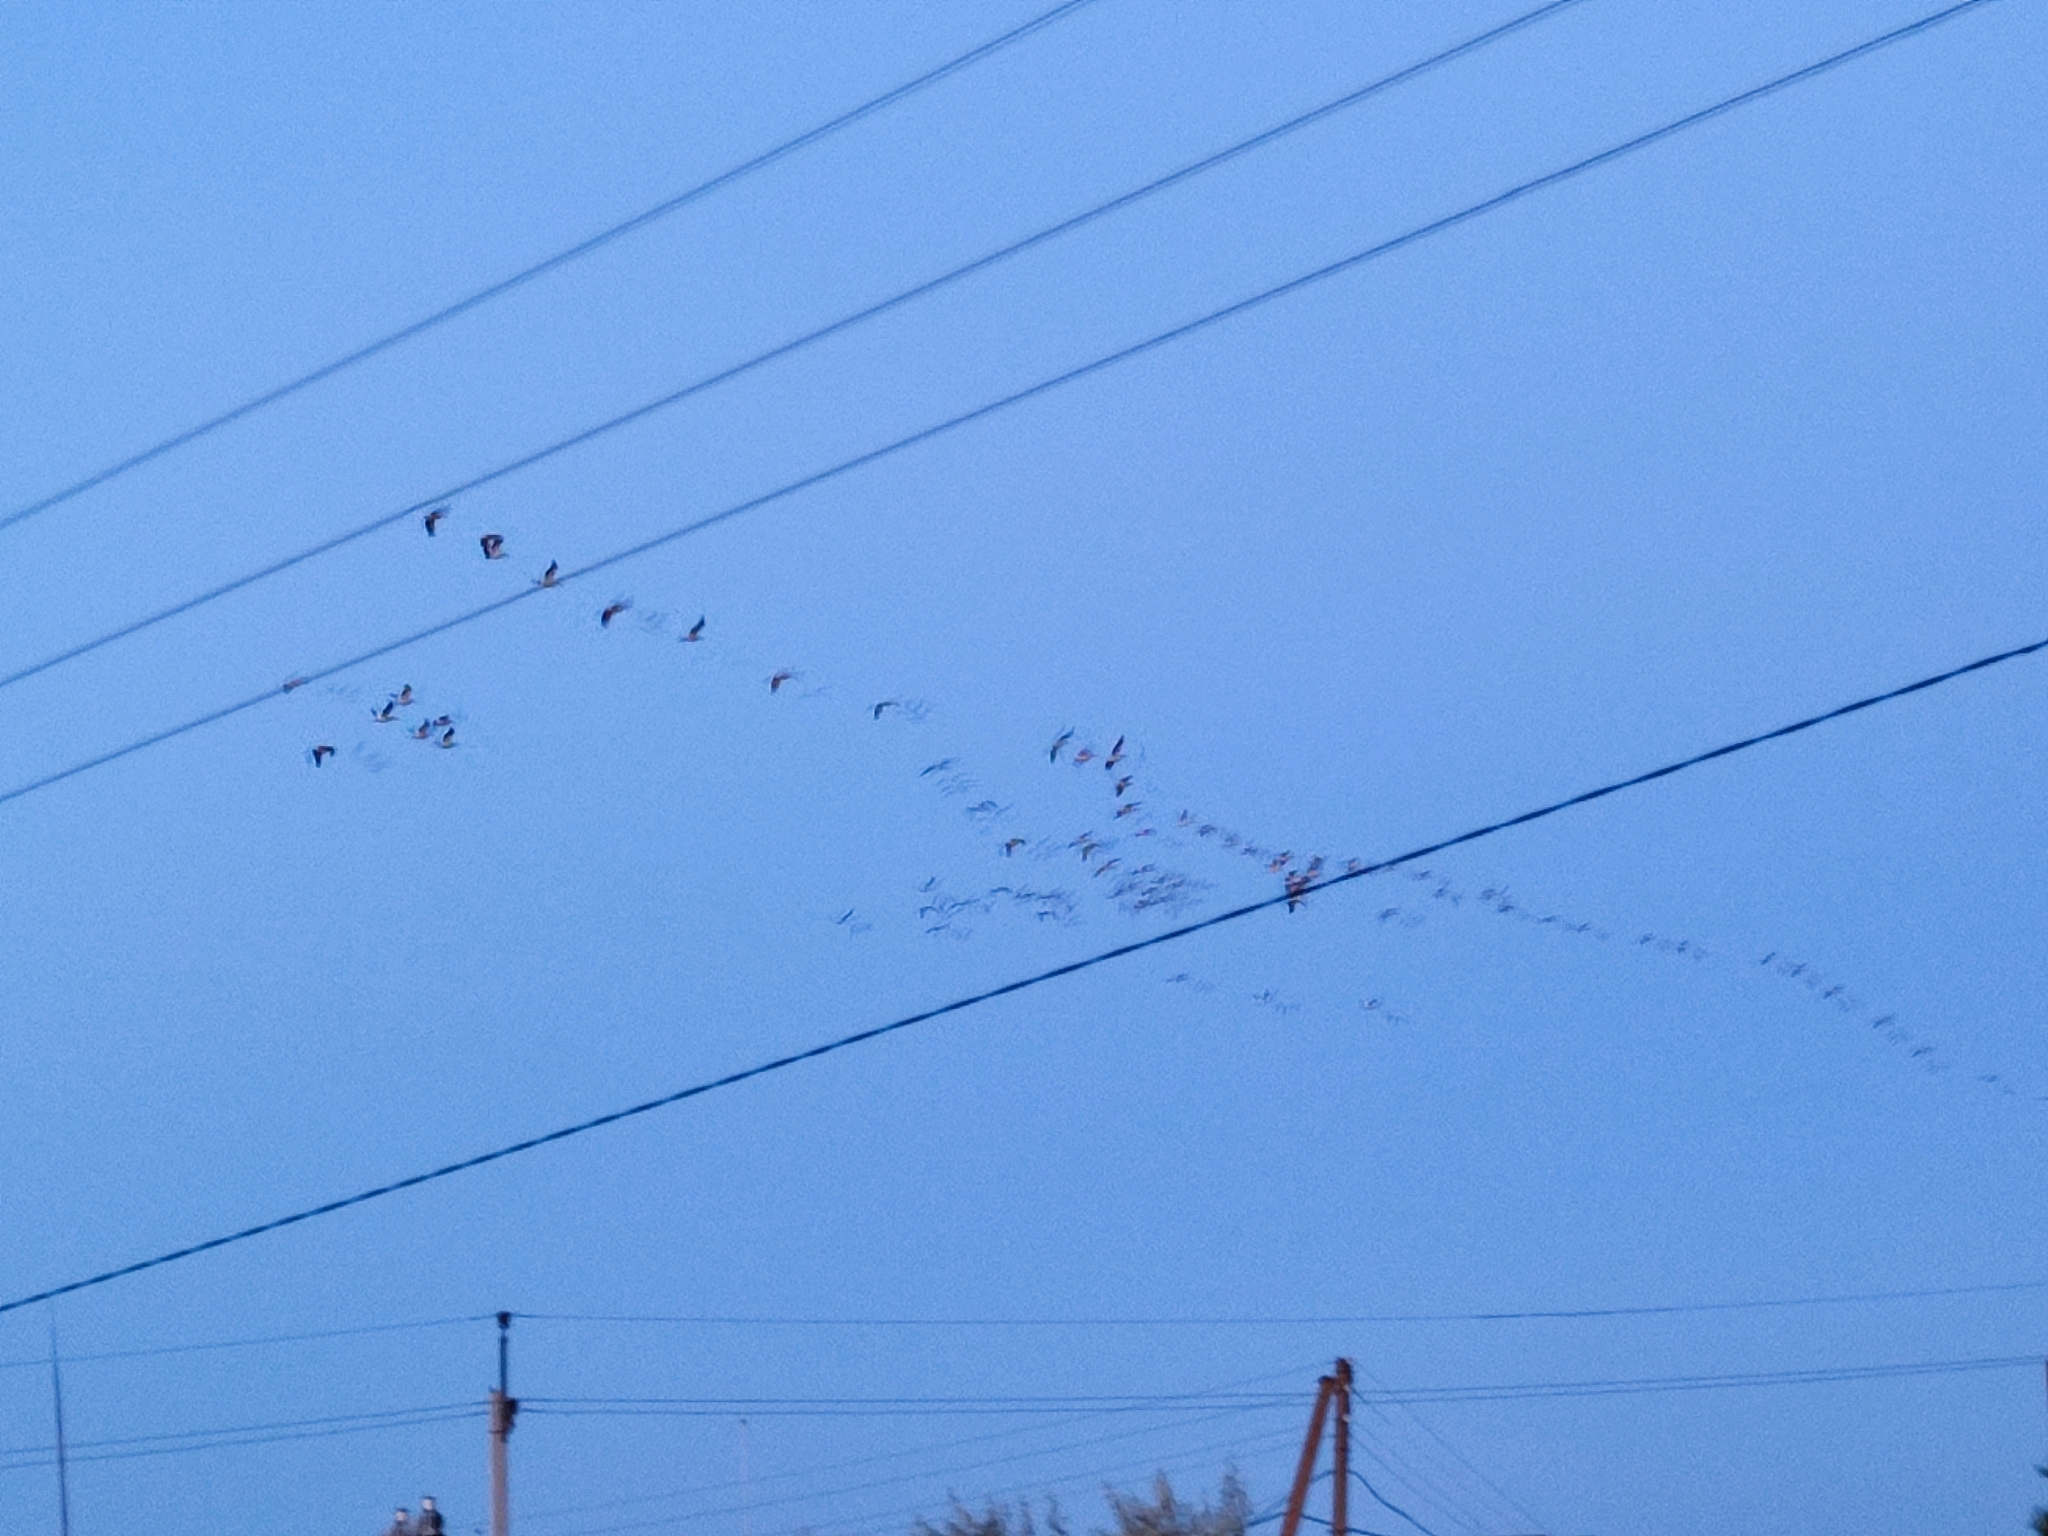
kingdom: Animalia
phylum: Chordata
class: Aves
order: Pelecaniformes
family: Pelecanidae
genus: Pelecanus
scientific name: Pelecanus onocrotalus
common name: Great white pelican
